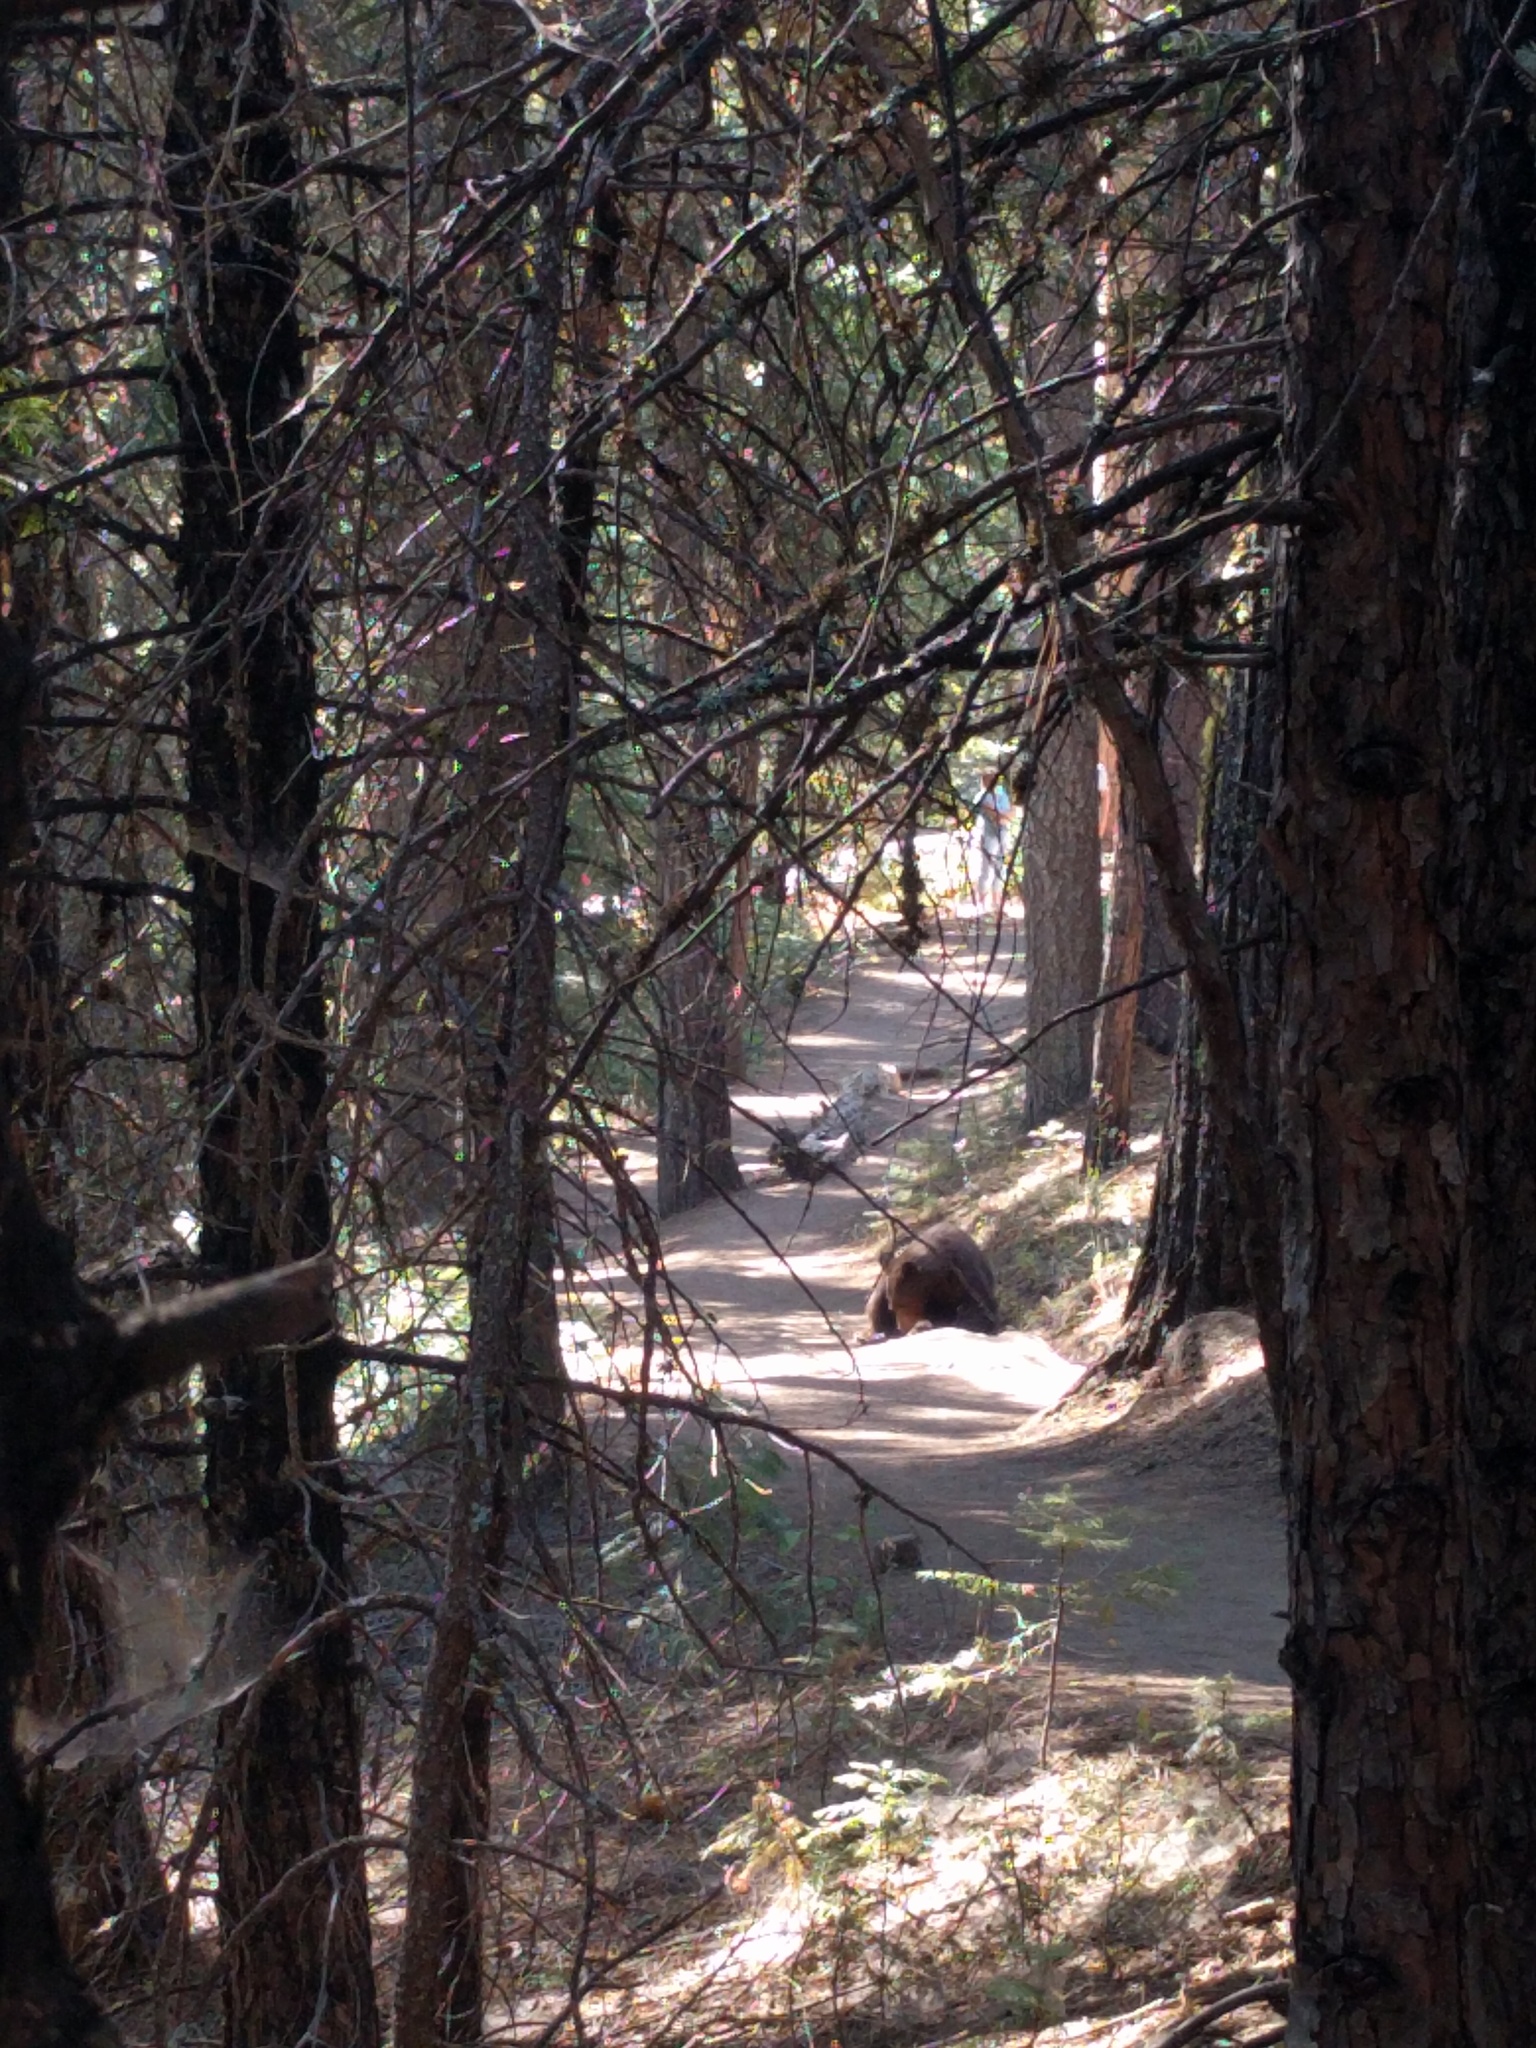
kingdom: Animalia
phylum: Chordata
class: Mammalia
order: Carnivora
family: Ursidae
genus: Ursus
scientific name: Ursus americanus
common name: American black bear
